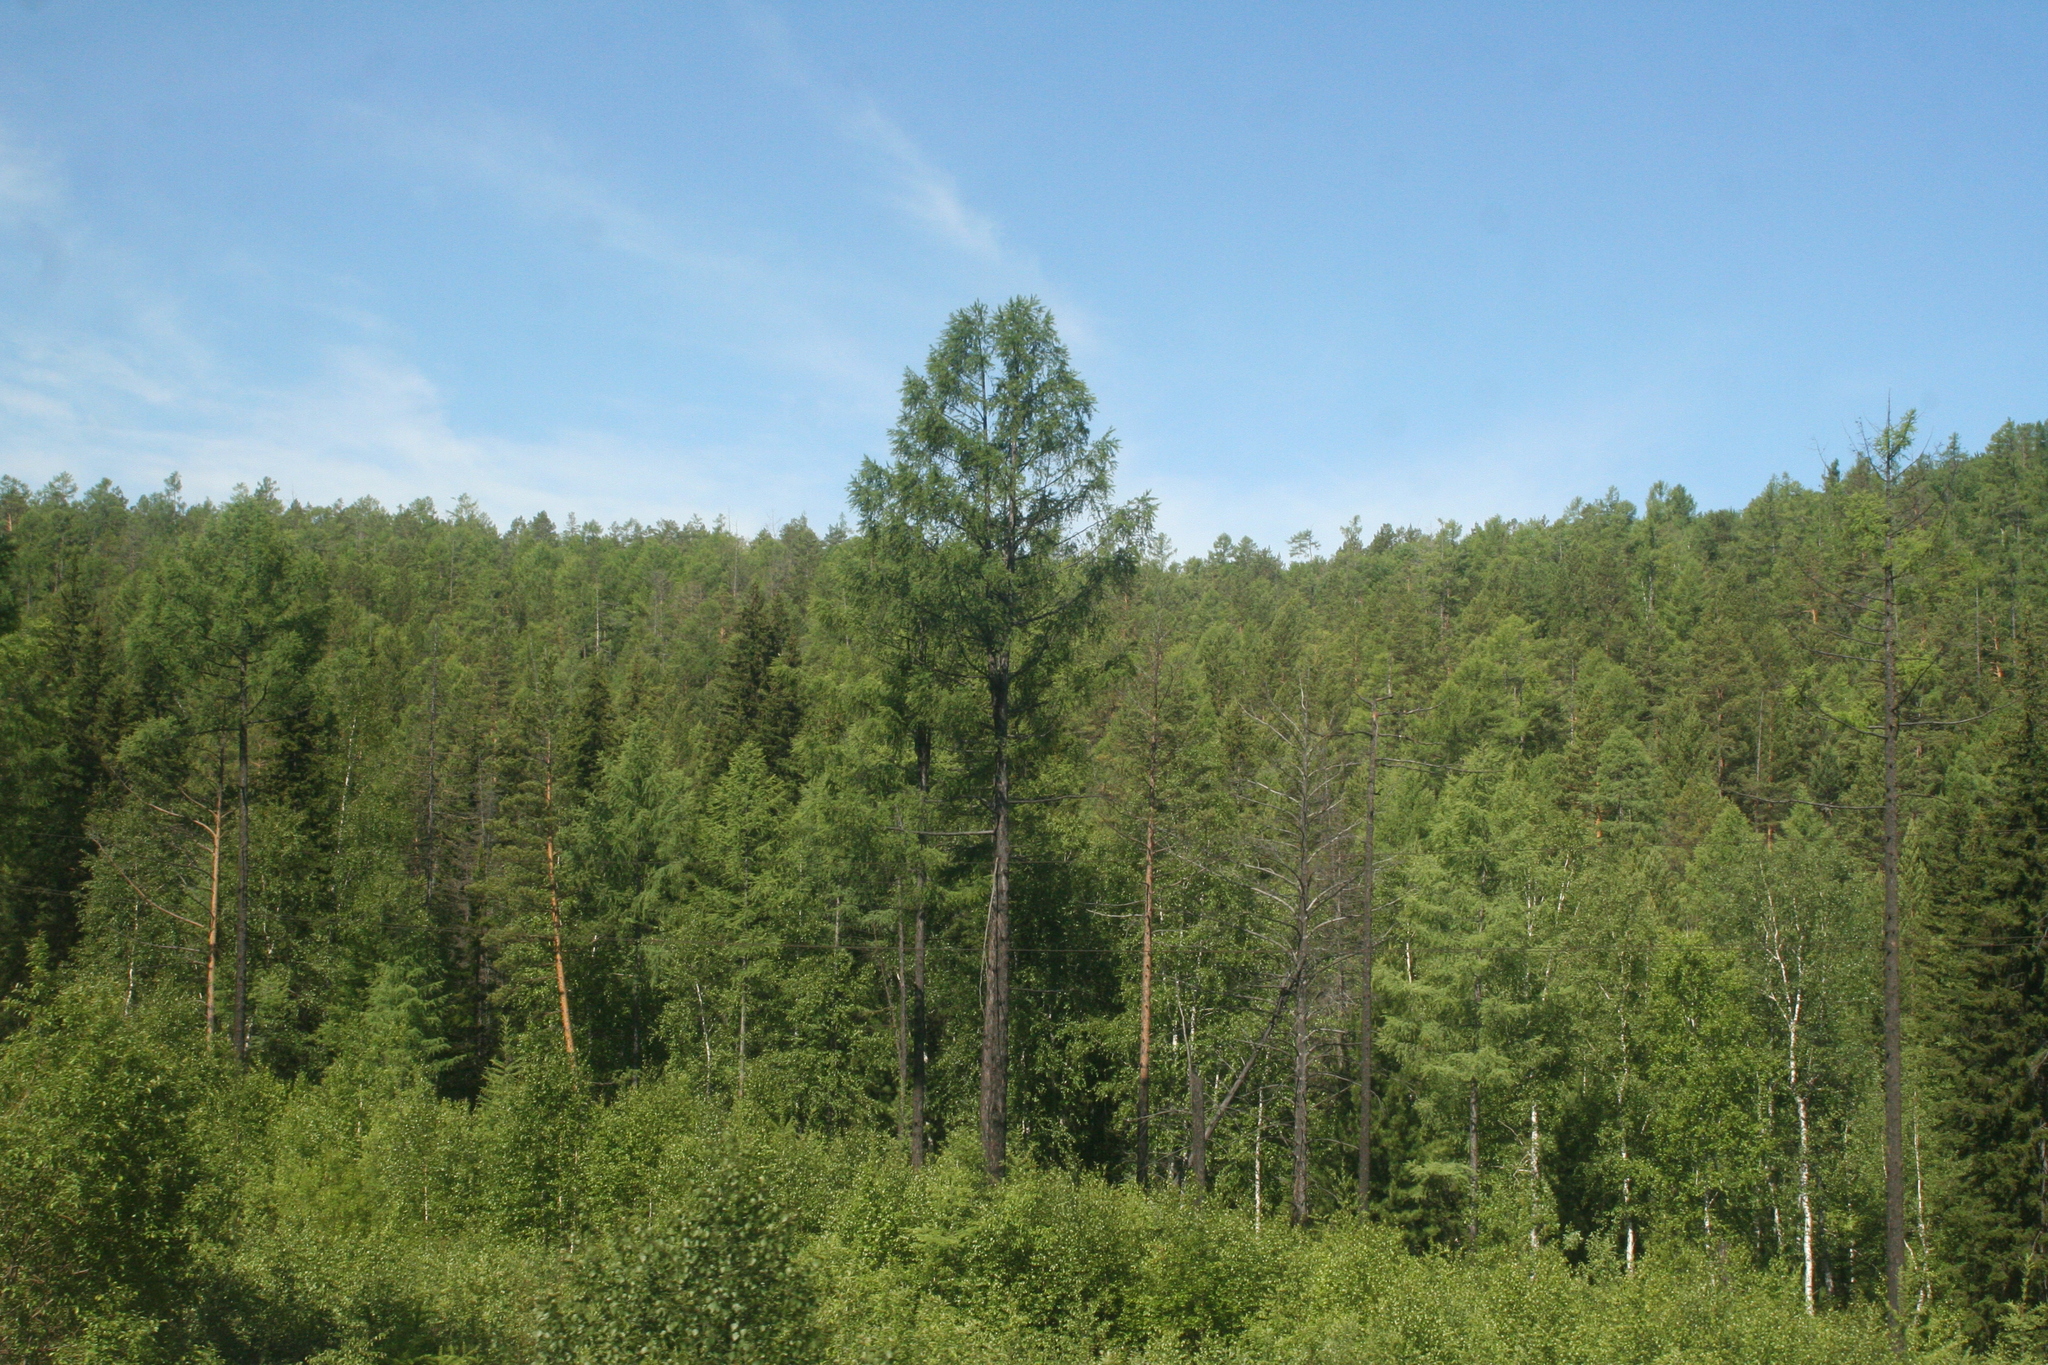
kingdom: Plantae
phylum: Tracheophyta
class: Pinopsida
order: Pinales
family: Pinaceae
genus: Larix
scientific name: Larix sibirica
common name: Siberian larch
